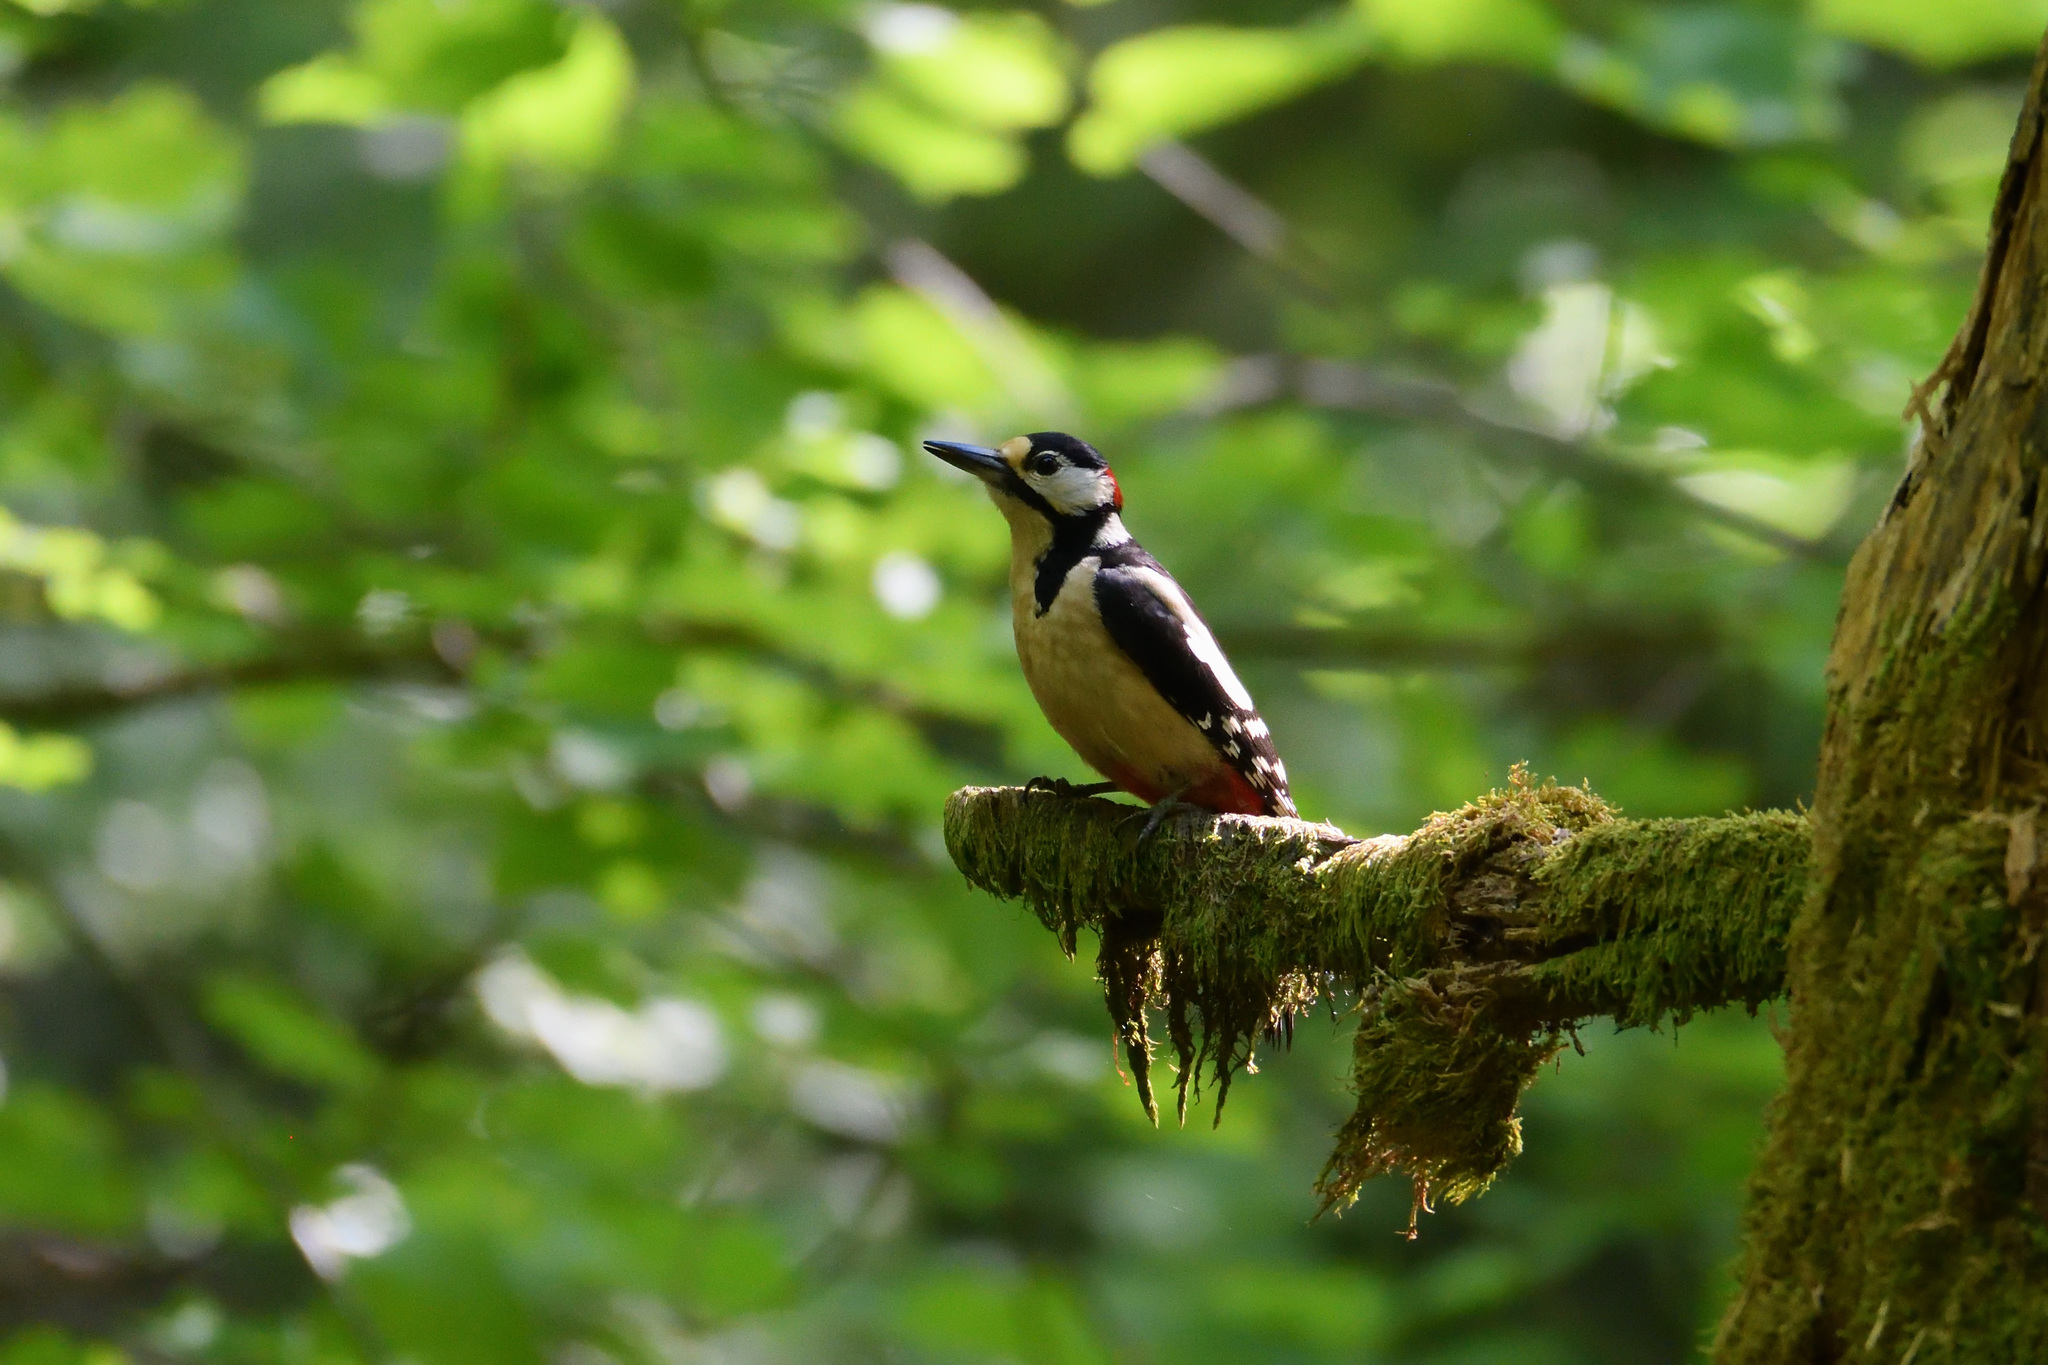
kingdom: Animalia
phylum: Chordata
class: Aves
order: Piciformes
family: Picidae
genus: Dendrocopos
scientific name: Dendrocopos major
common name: Great spotted woodpecker
